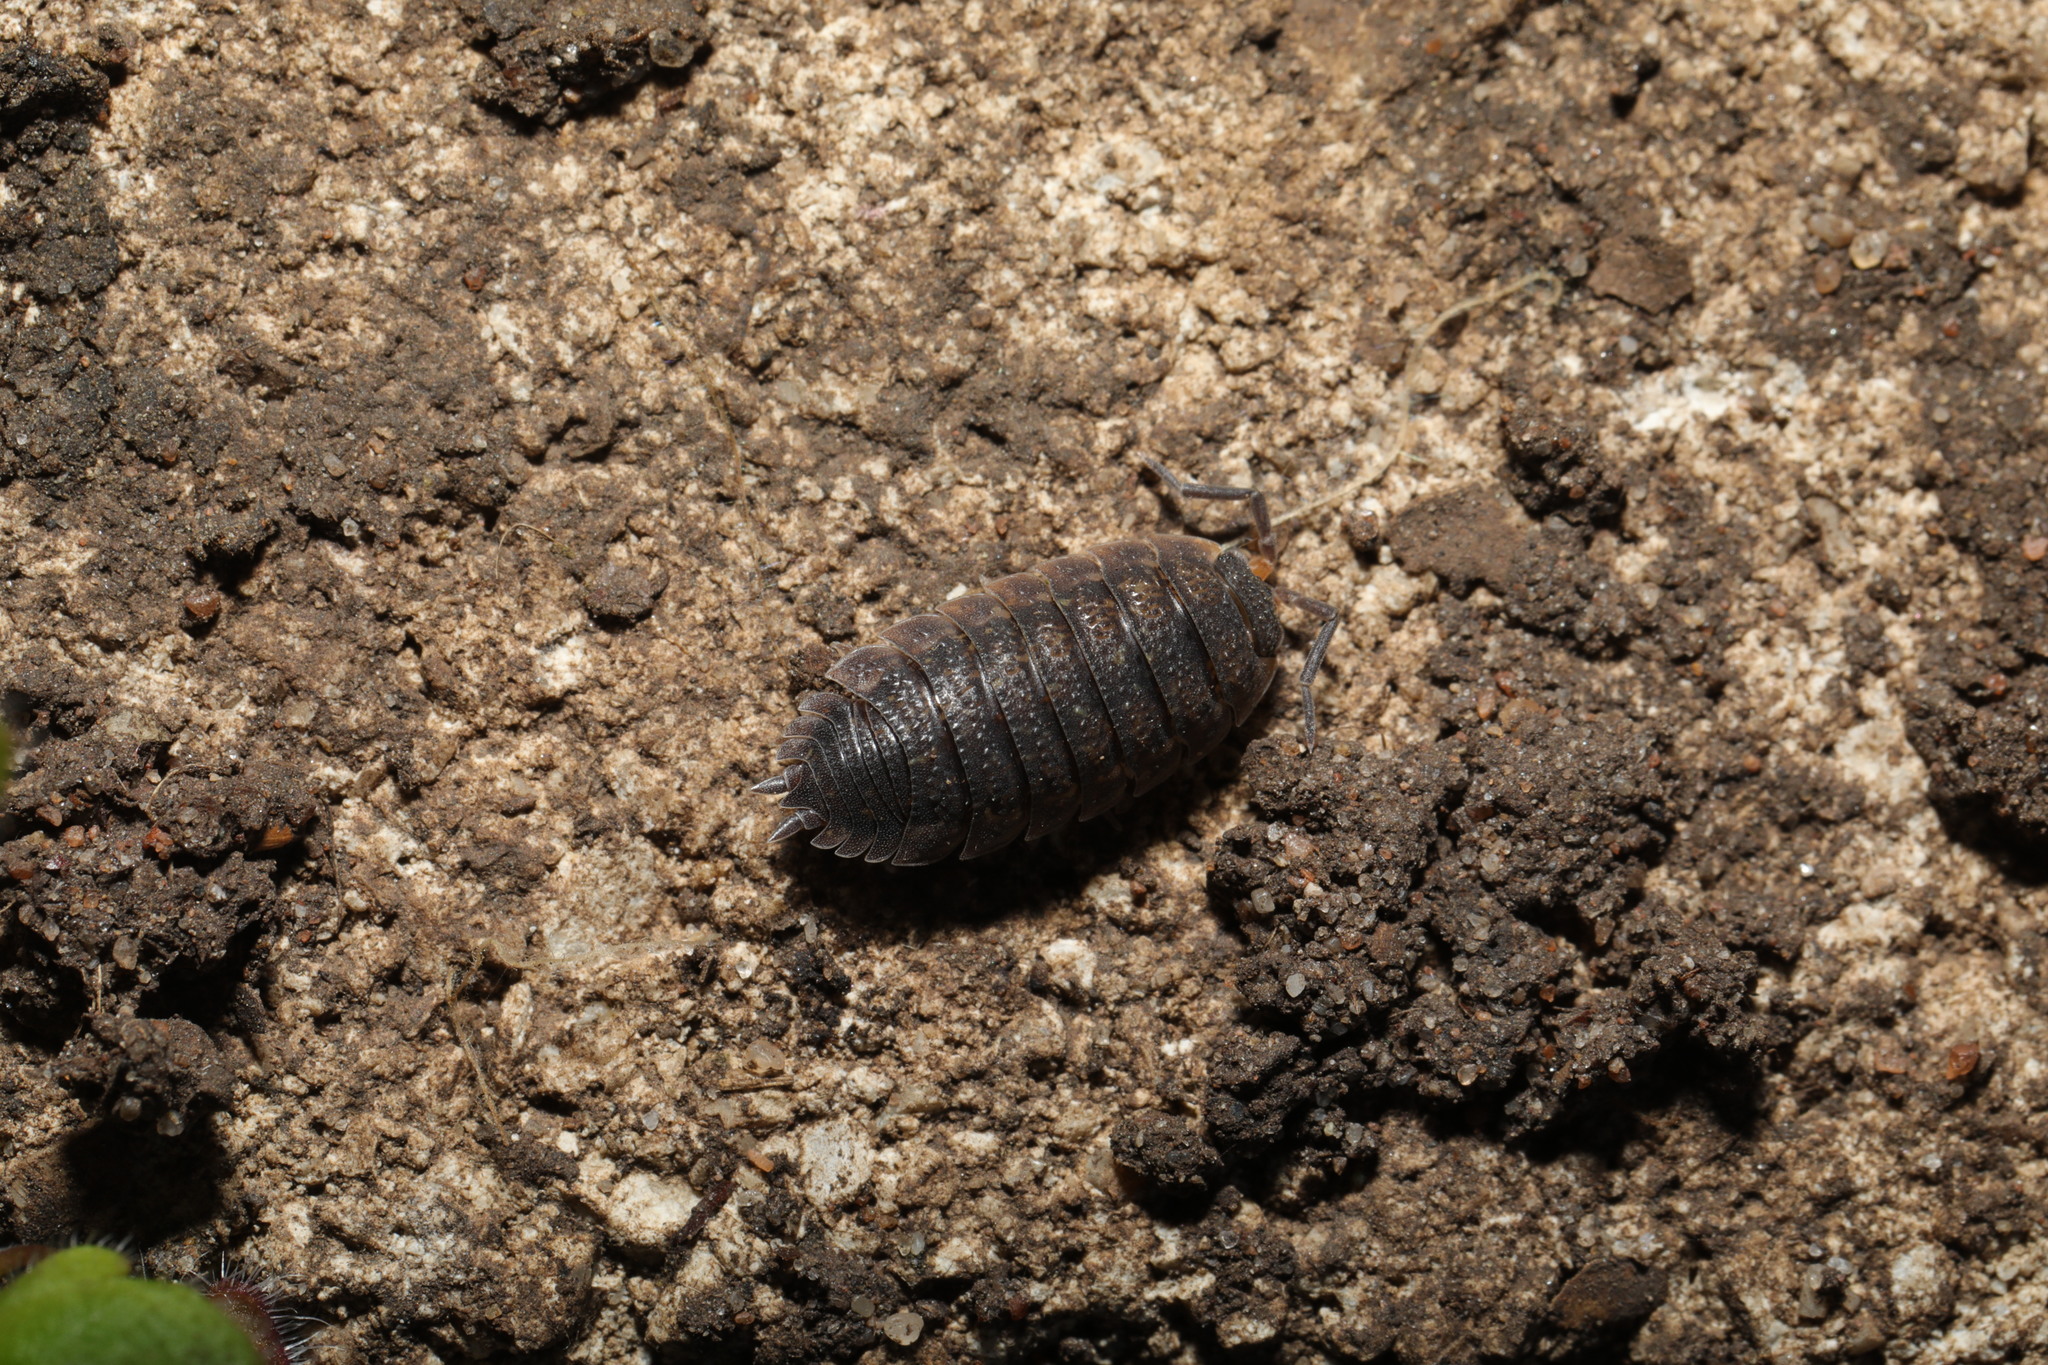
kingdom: Animalia
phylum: Arthropoda
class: Malacostraca
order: Isopoda
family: Porcellionidae
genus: Porcellio
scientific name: Porcellio scaber
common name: Common rough woodlouse
